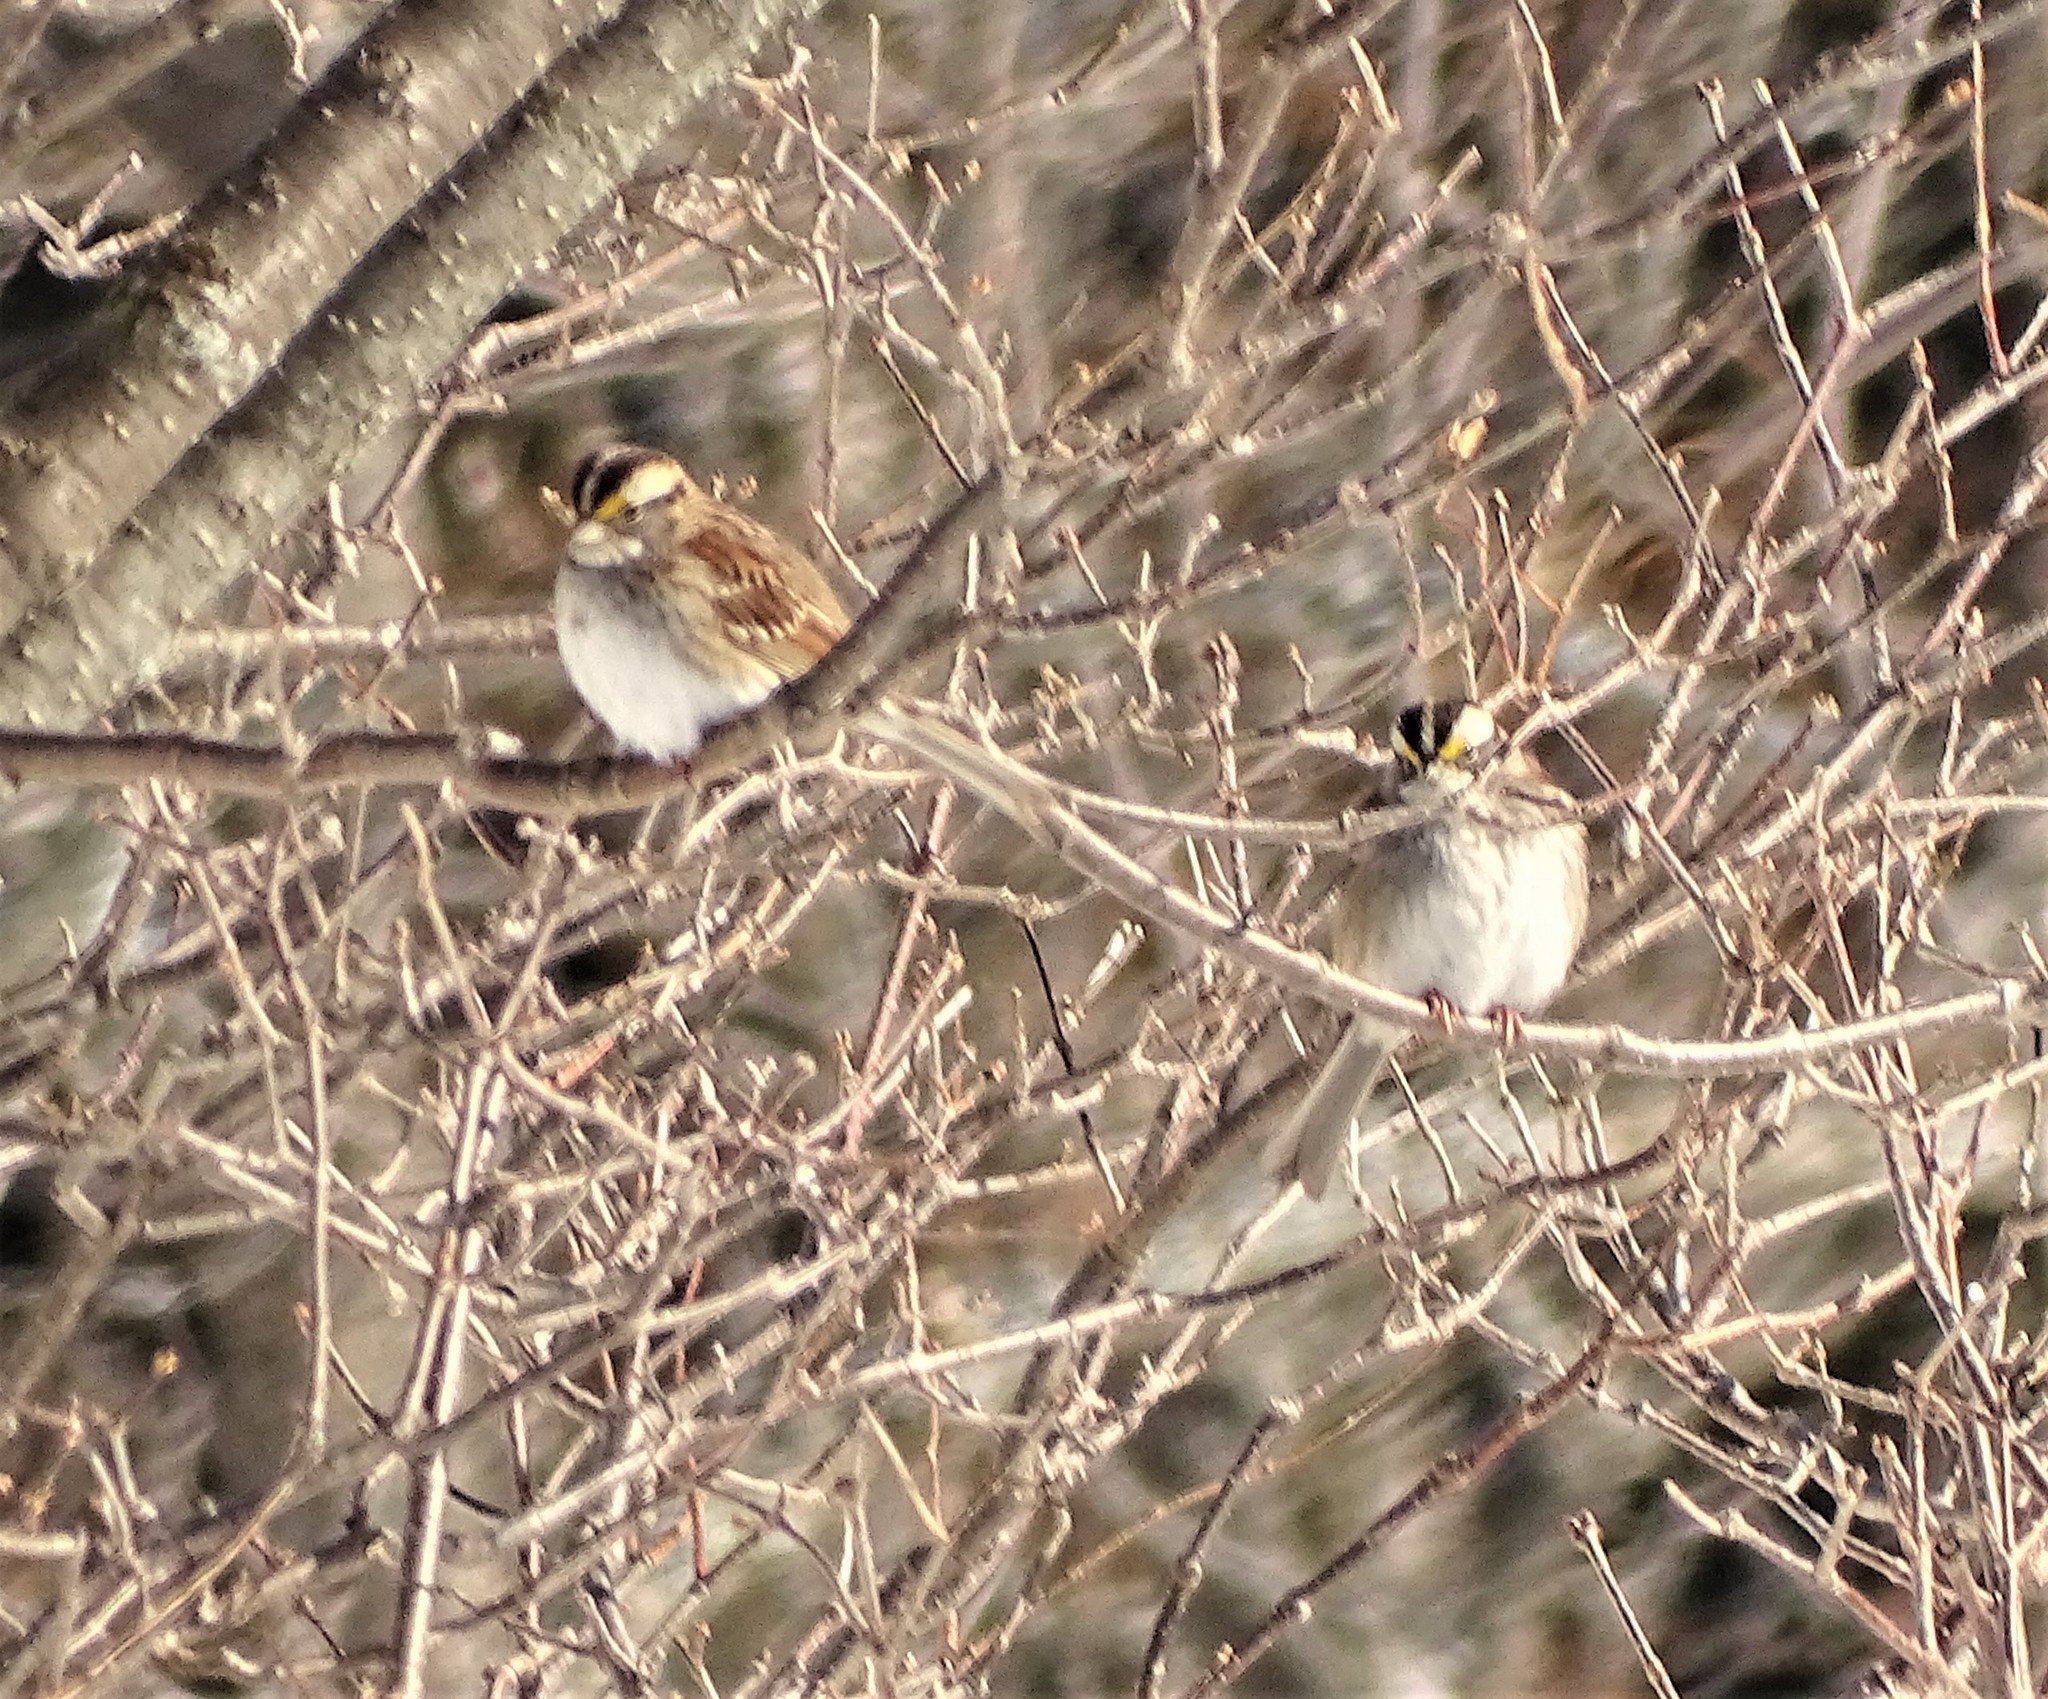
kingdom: Animalia
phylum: Chordata
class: Aves
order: Passeriformes
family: Passerellidae
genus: Zonotrichia
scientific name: Zonotrichia albicollis
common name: White-throated sparrow
